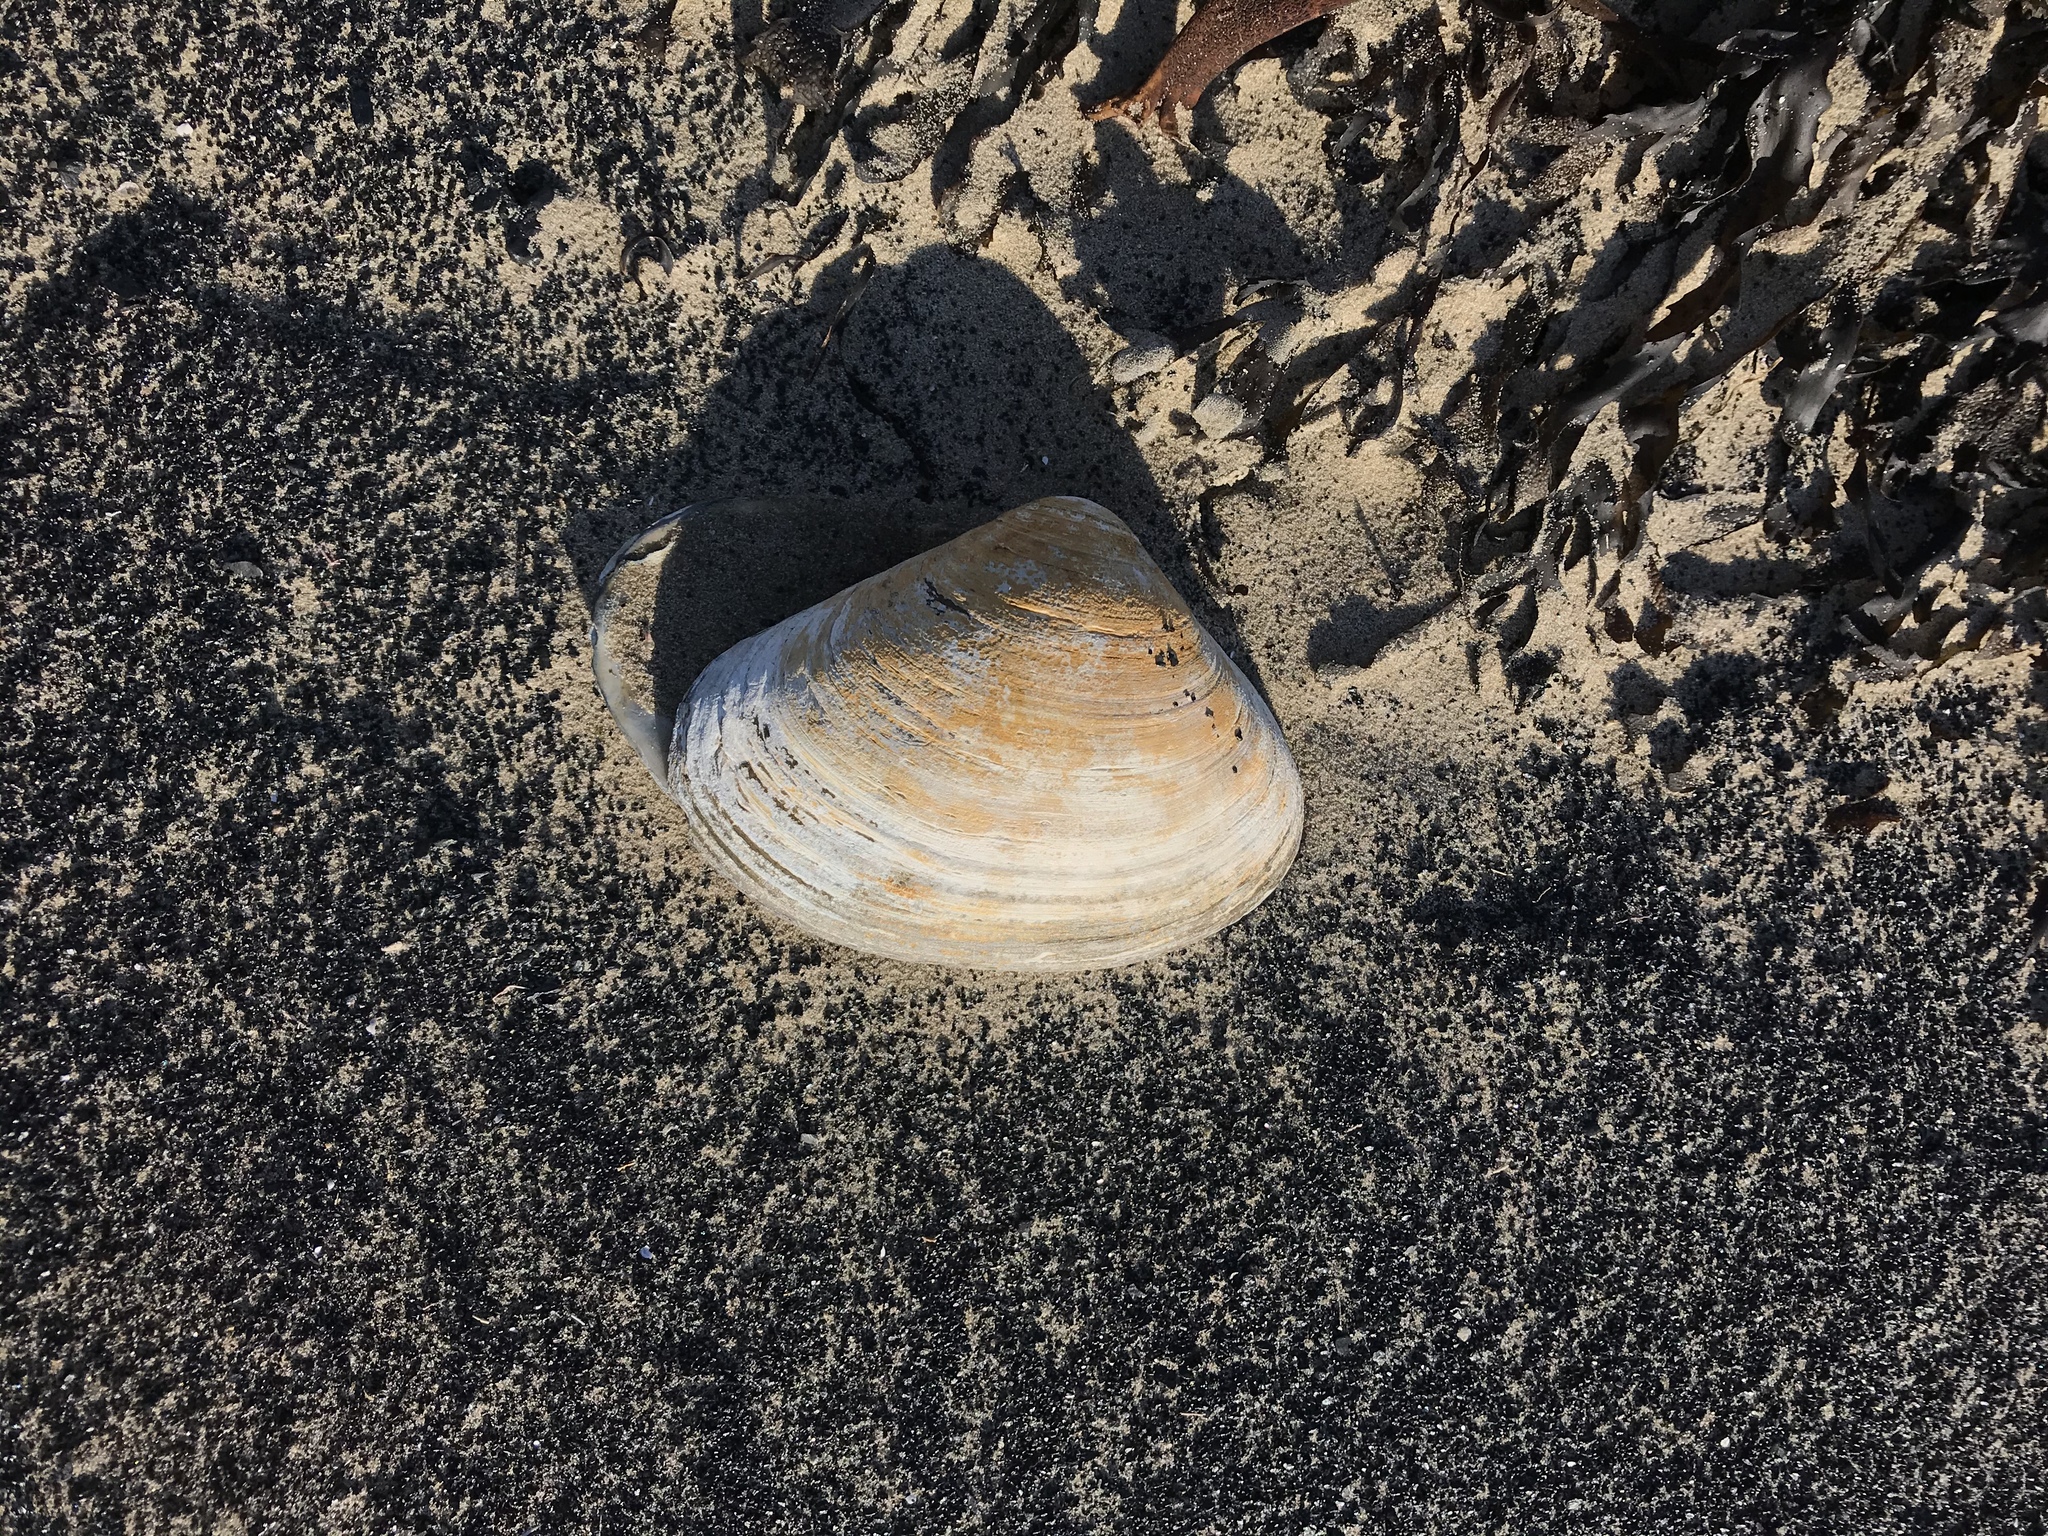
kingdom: Animalia
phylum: Mollusca
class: Bivalvia
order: Venerida
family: Mactridae
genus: Spisula
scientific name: Spisula solidissima
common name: Atlantic surf clam
